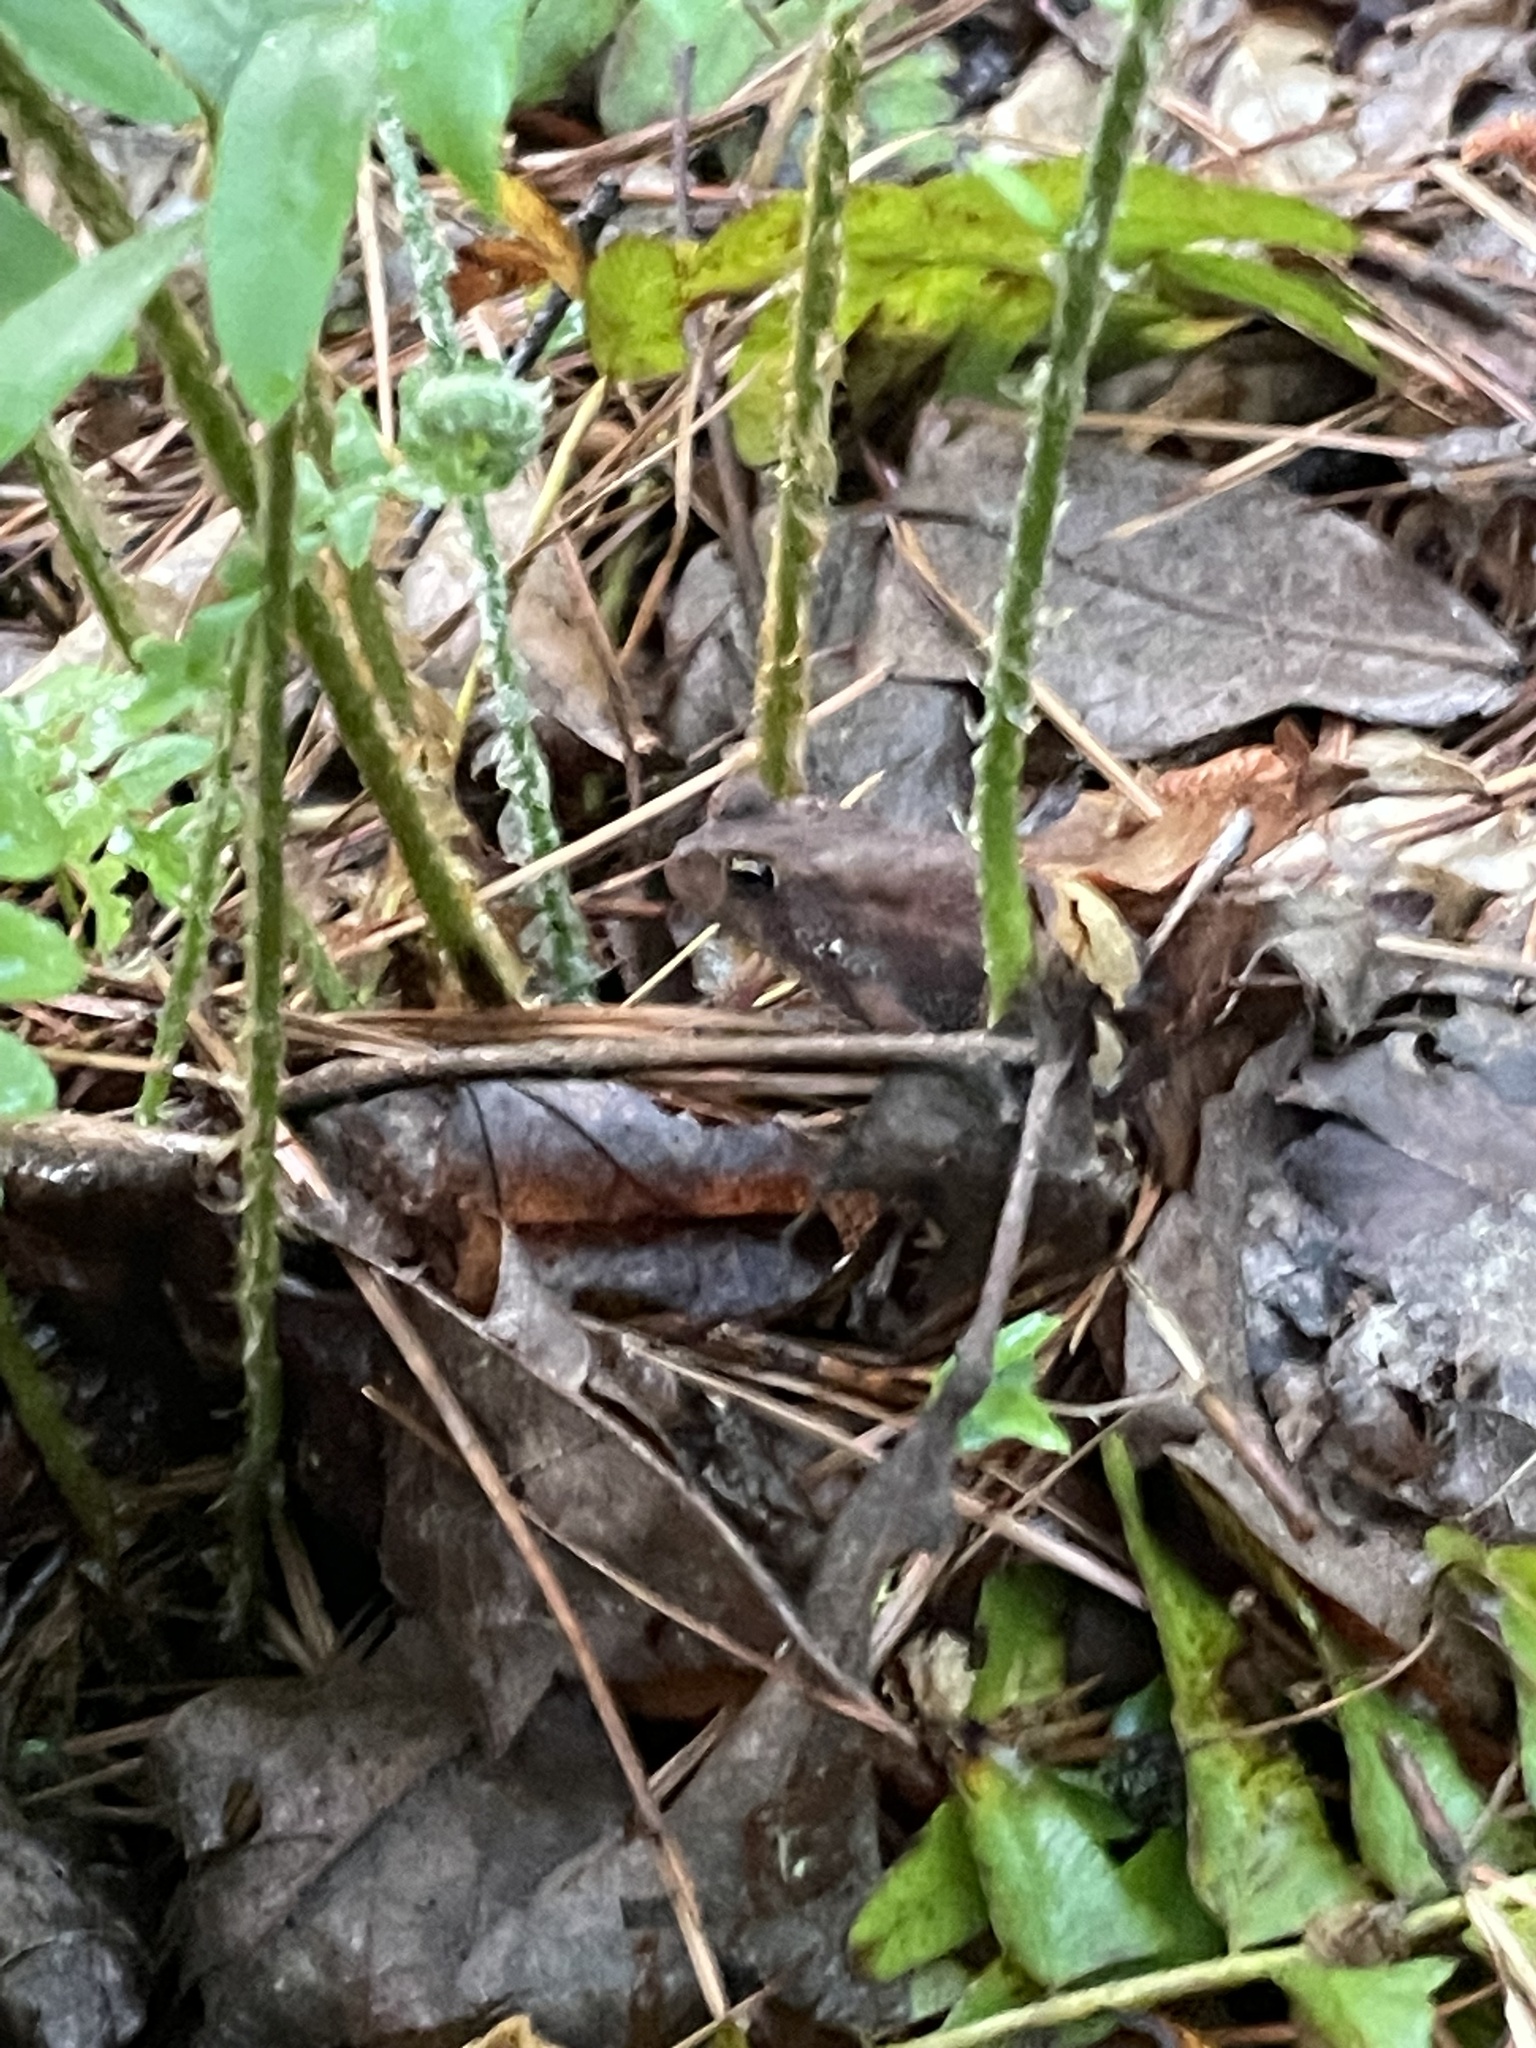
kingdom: Animalia
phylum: Chordata
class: Amphibia
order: Anura
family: Bufonidae
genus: Anaxyrus
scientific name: Anaxyrus americanus
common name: American toad
